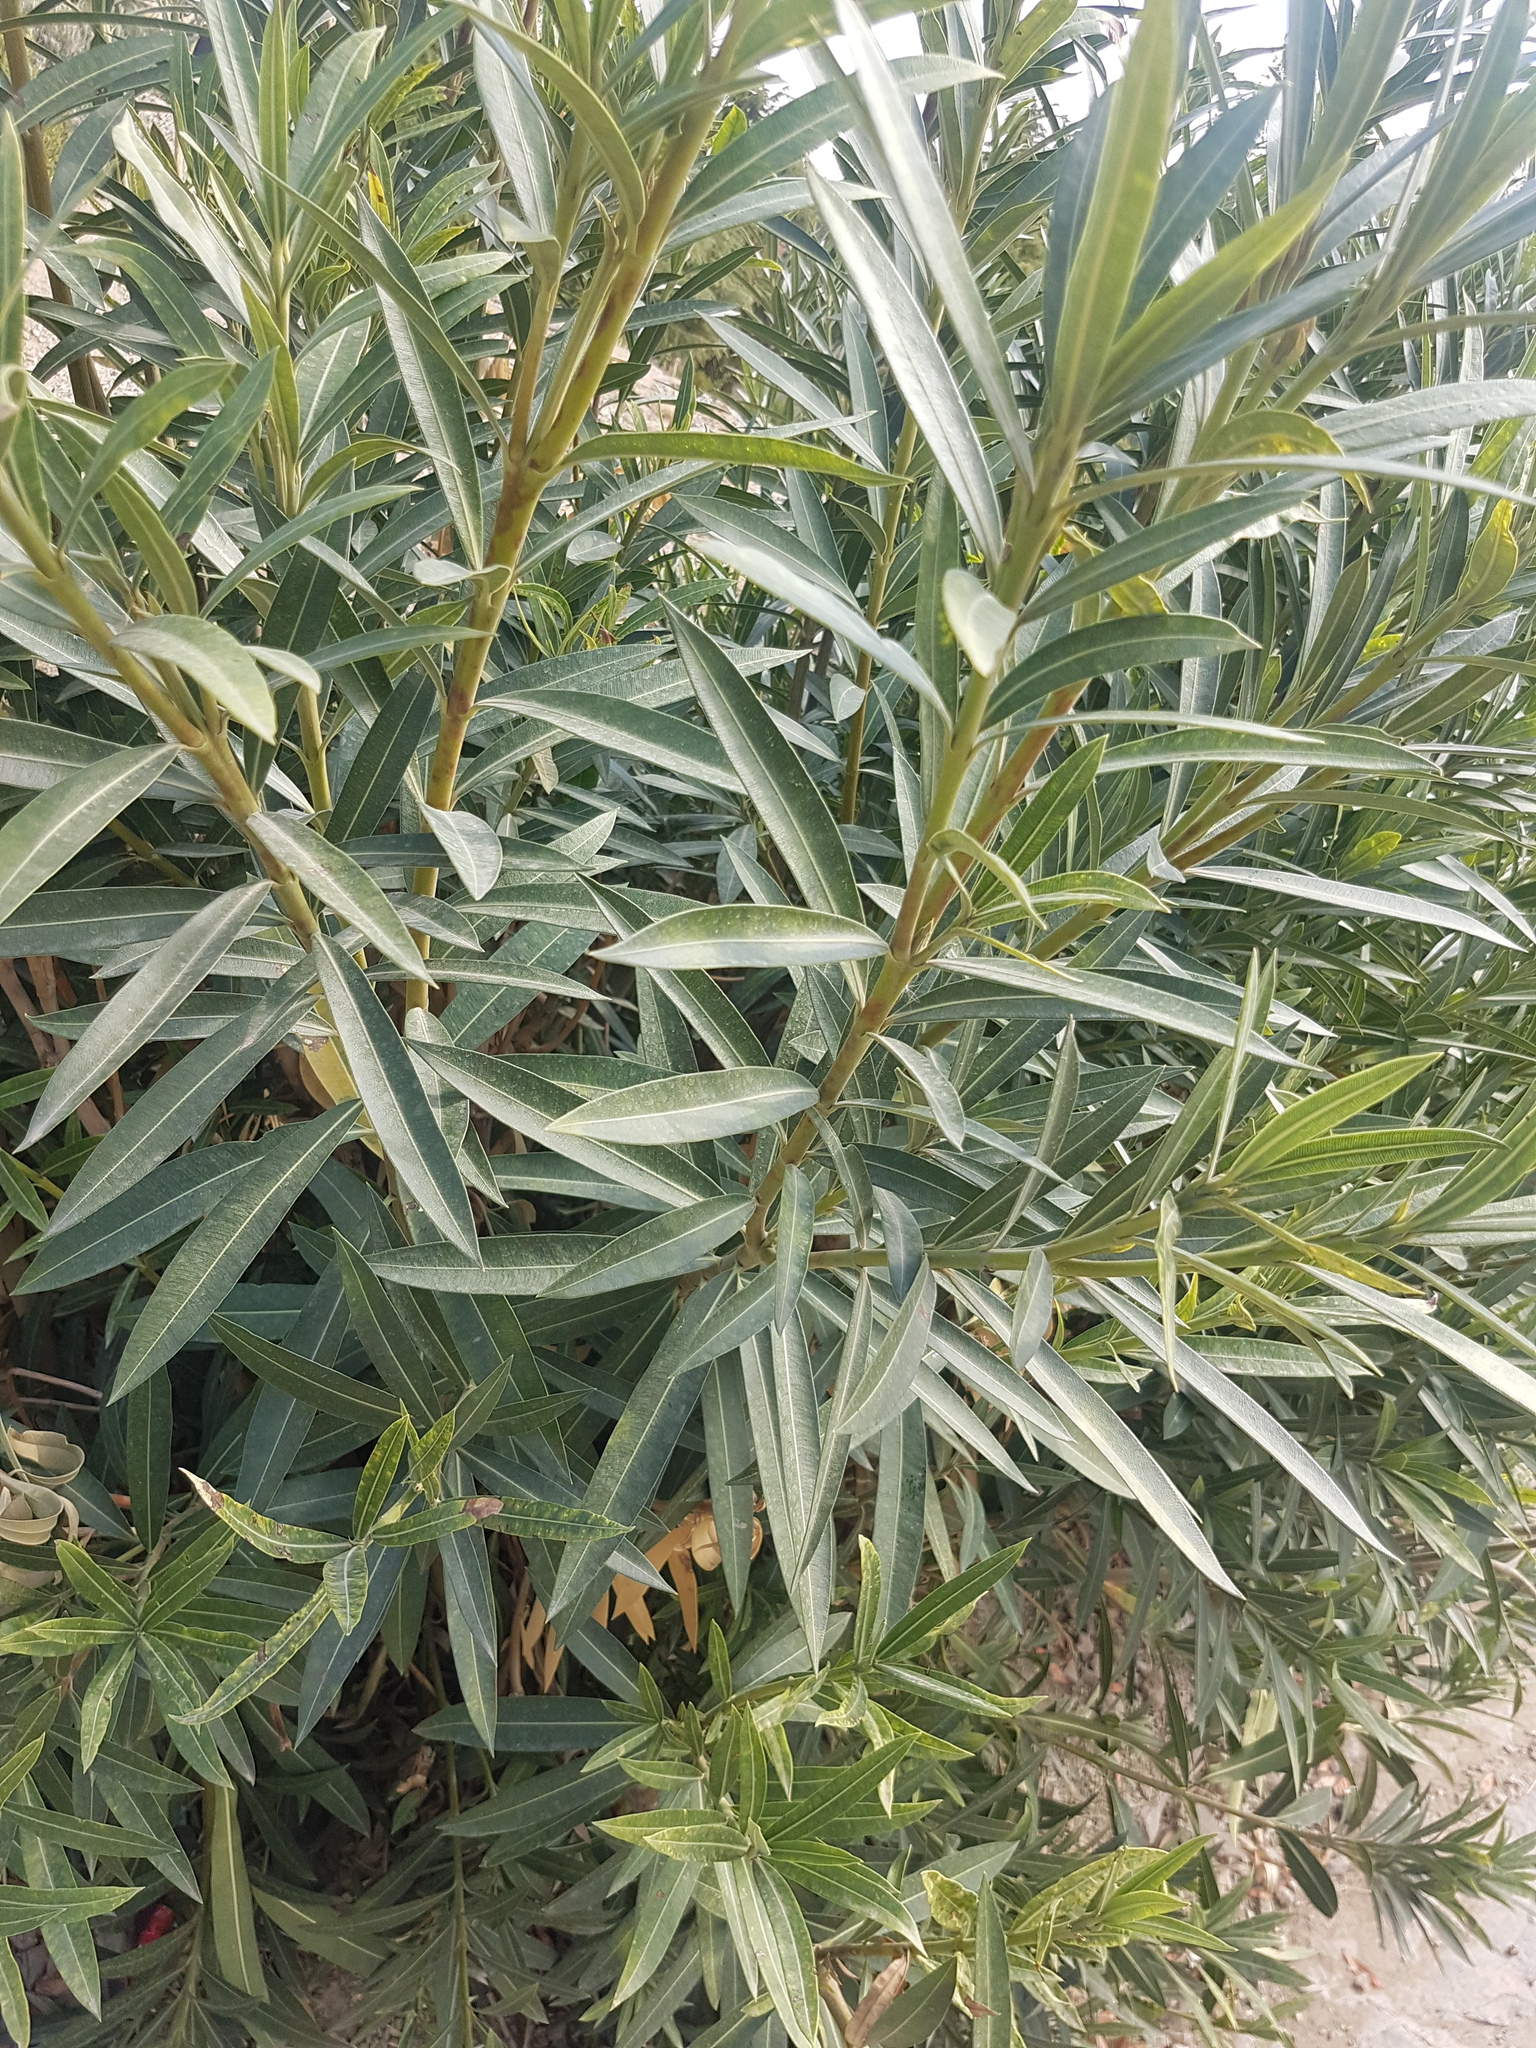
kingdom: Plantae
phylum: Tracheophyta
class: Magnoliopsida
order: Gentianales
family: Apocynaceae
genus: Nerium
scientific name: Nerium oleander
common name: Oleander
